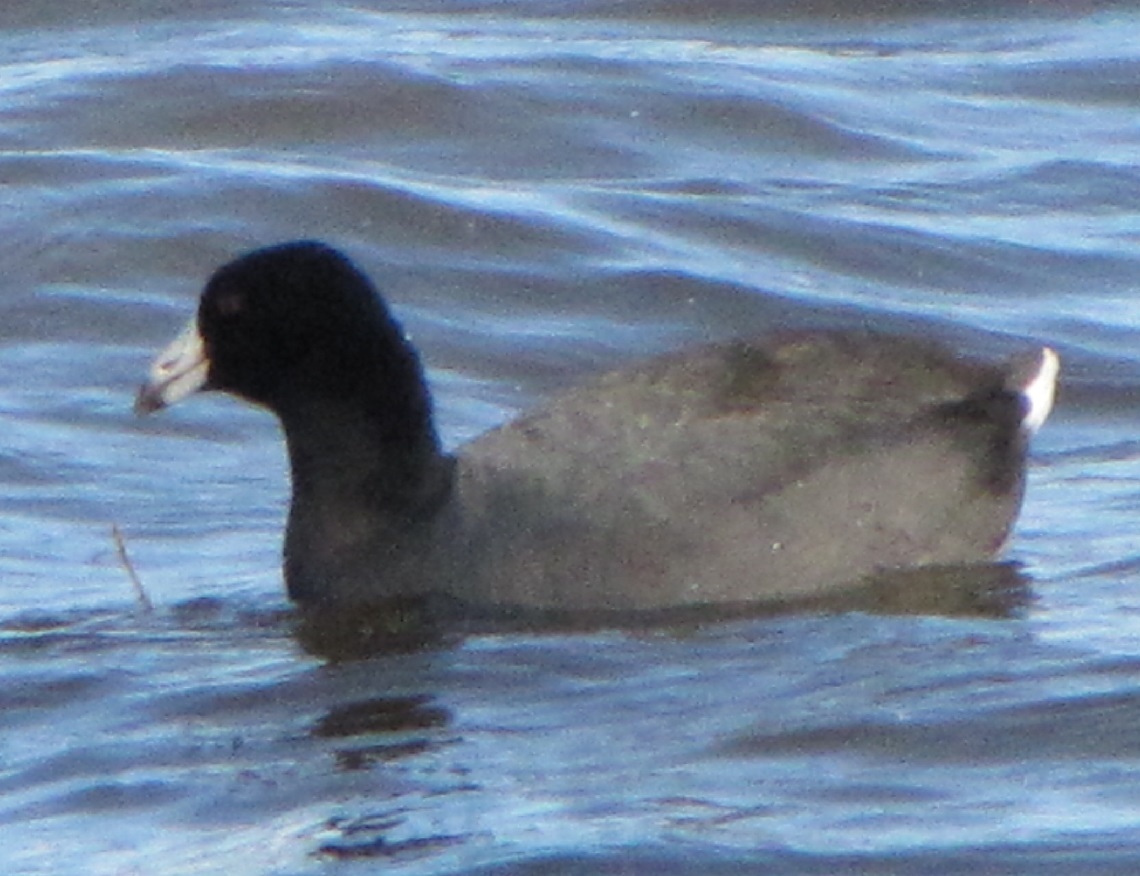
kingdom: Animalia
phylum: Chordata
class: Aves
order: Gruiformes
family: Rallidae
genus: Fulica
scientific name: Fulica americana
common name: American coot
